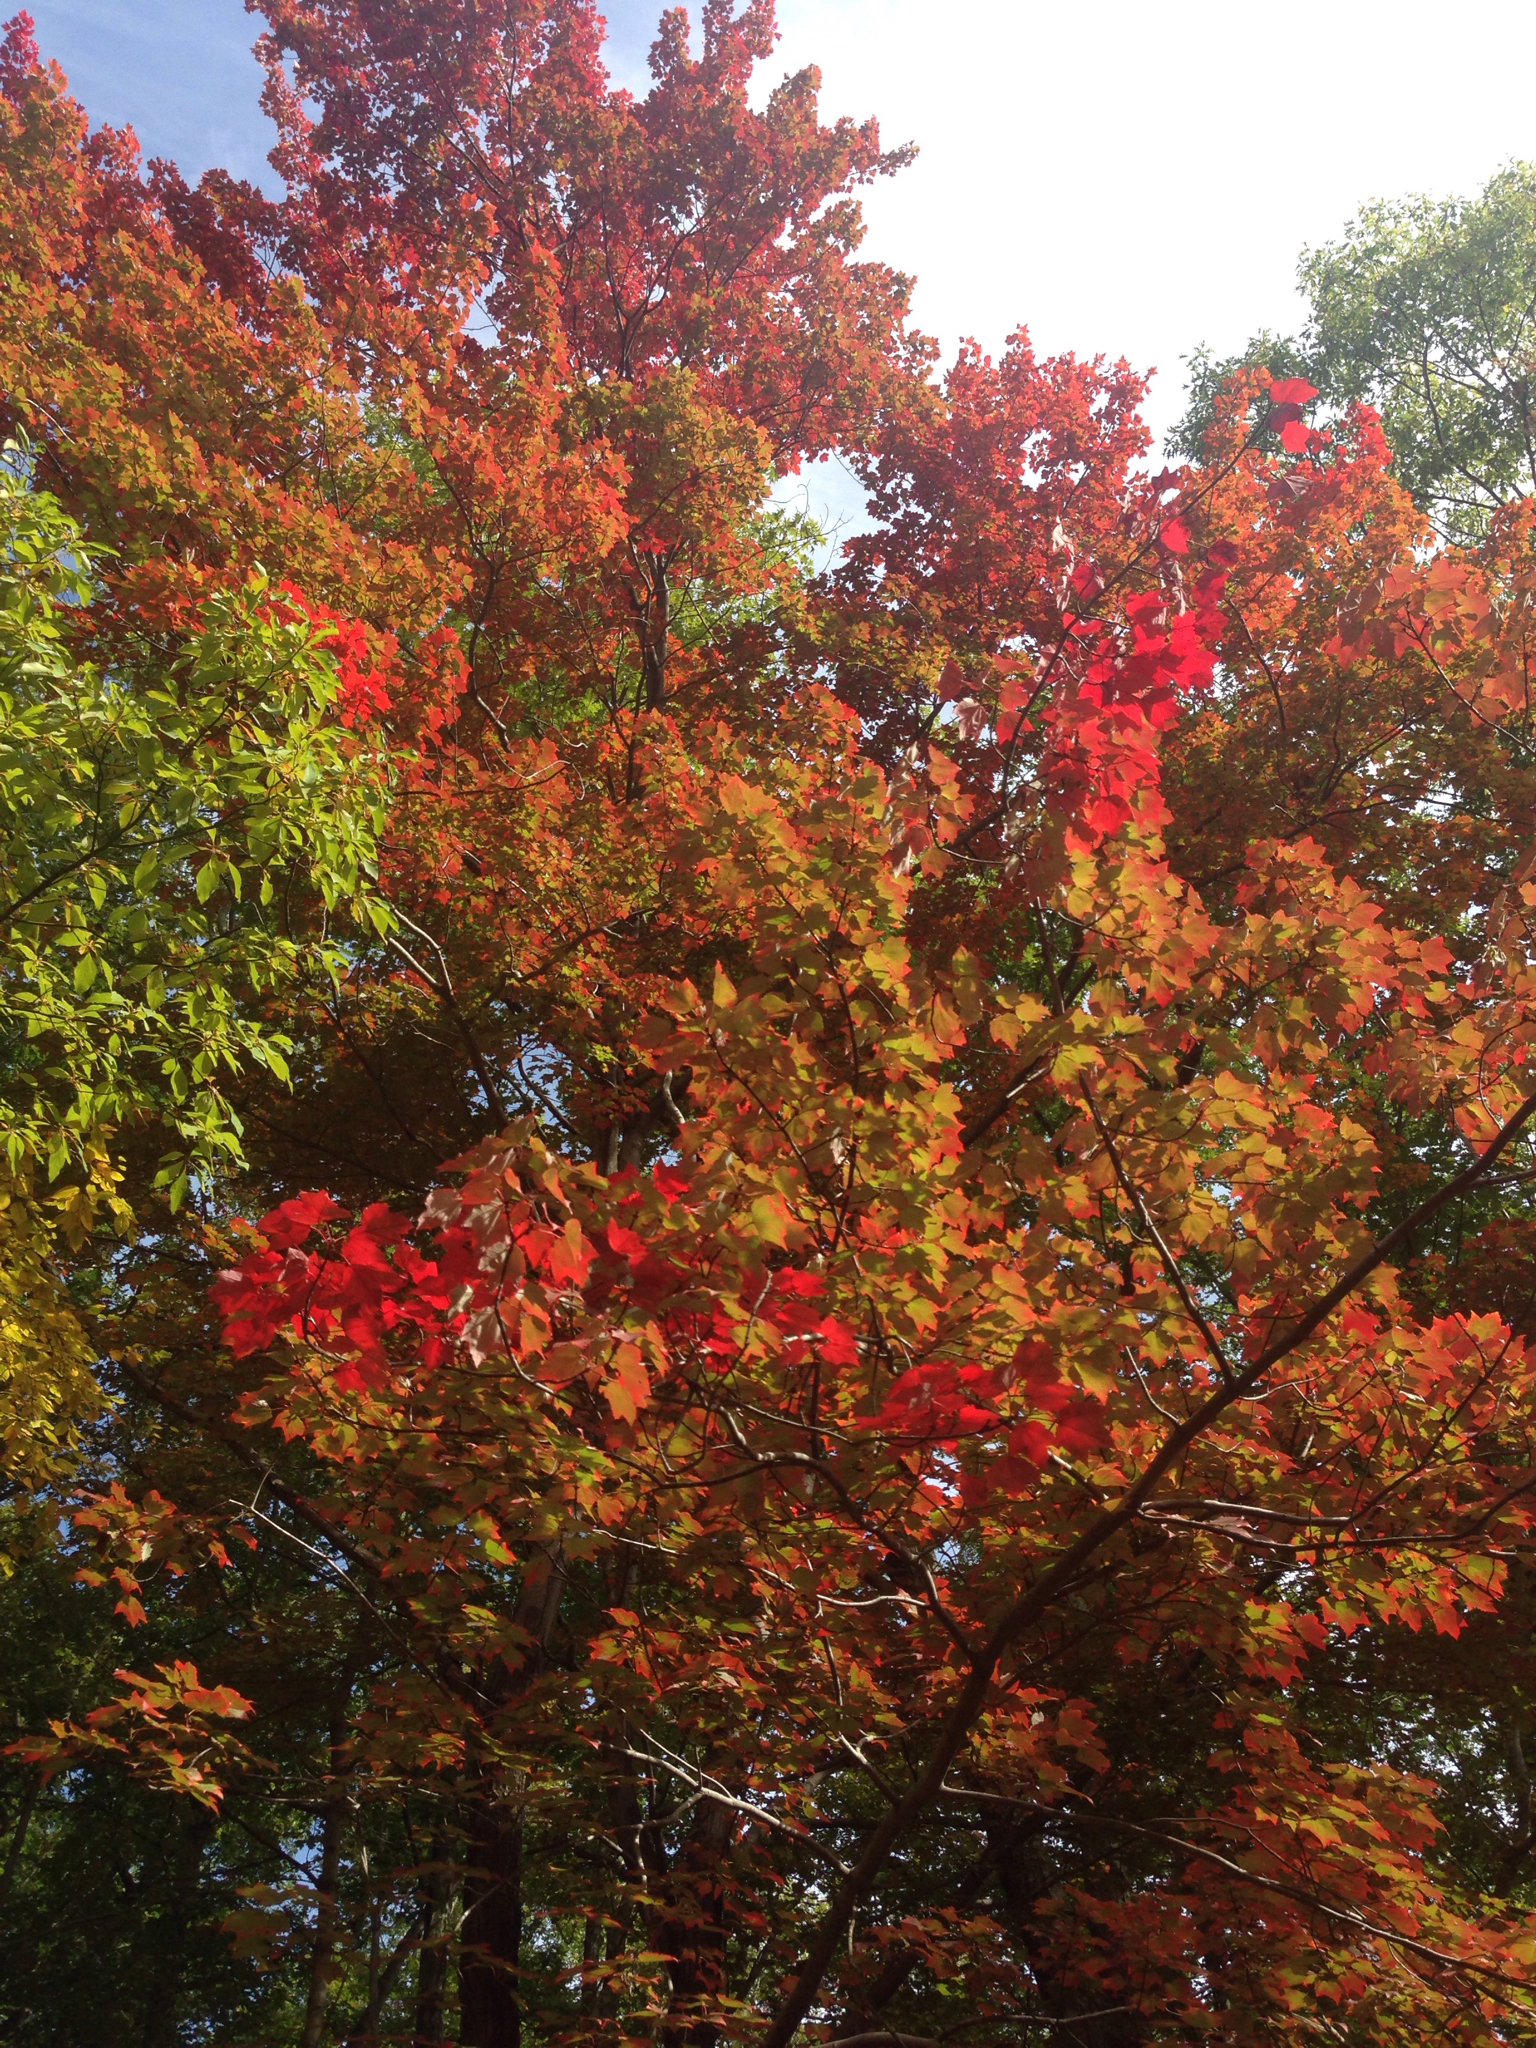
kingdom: Plantae
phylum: Tracheophyta
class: Magnoliopsida
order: Sapindales
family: Sapindaceae
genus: Acer
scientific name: Acer rubrum
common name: Red maple
